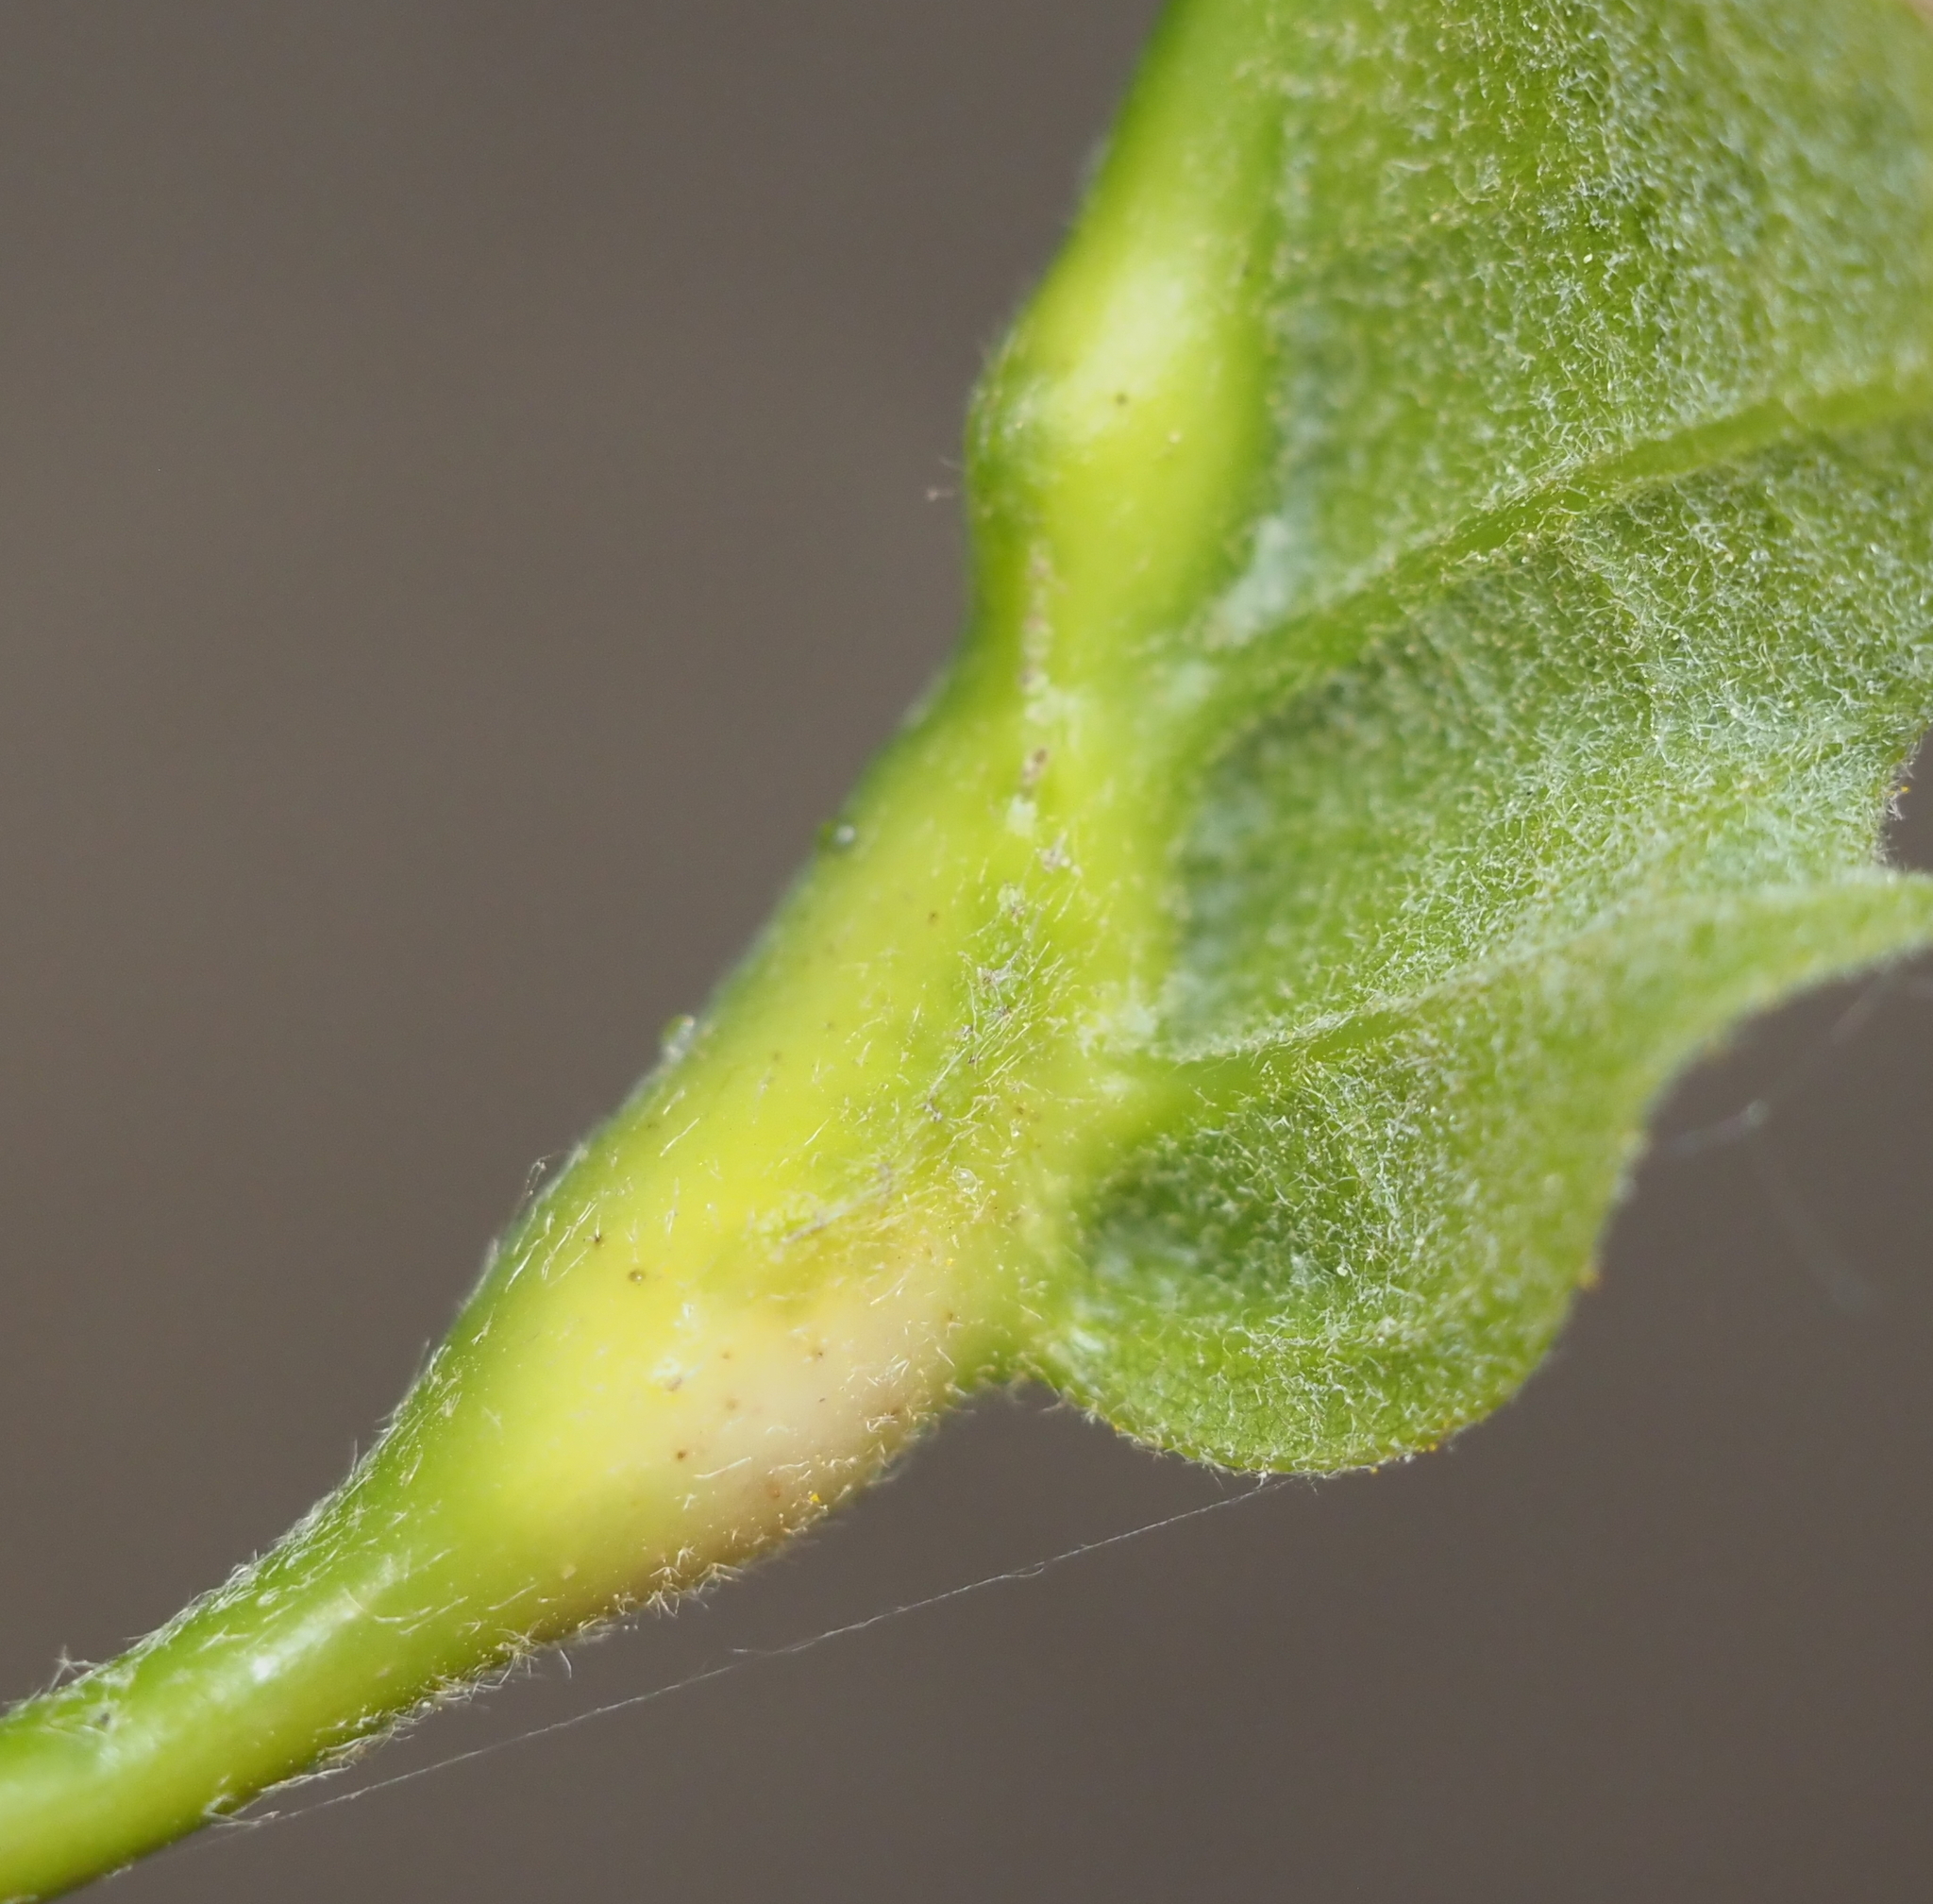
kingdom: Animalia
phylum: Arthropoda
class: Insecta
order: Hymenoptera
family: Cynipidae
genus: Melikaiella
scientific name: Melikaiella tumifica
